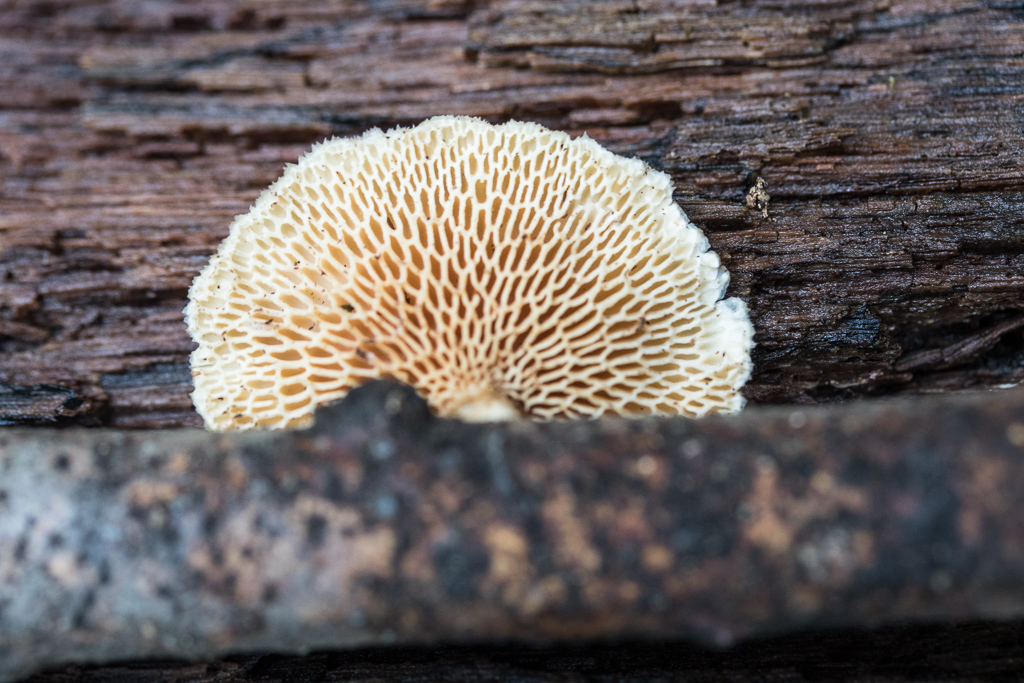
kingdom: Fungi
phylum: Basidiomycota
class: Agaricomycetes
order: Polyporales
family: Polyporaceae
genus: Neofavolus
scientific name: Neofavolus alveolaris
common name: Hexagonal-pored polypore
